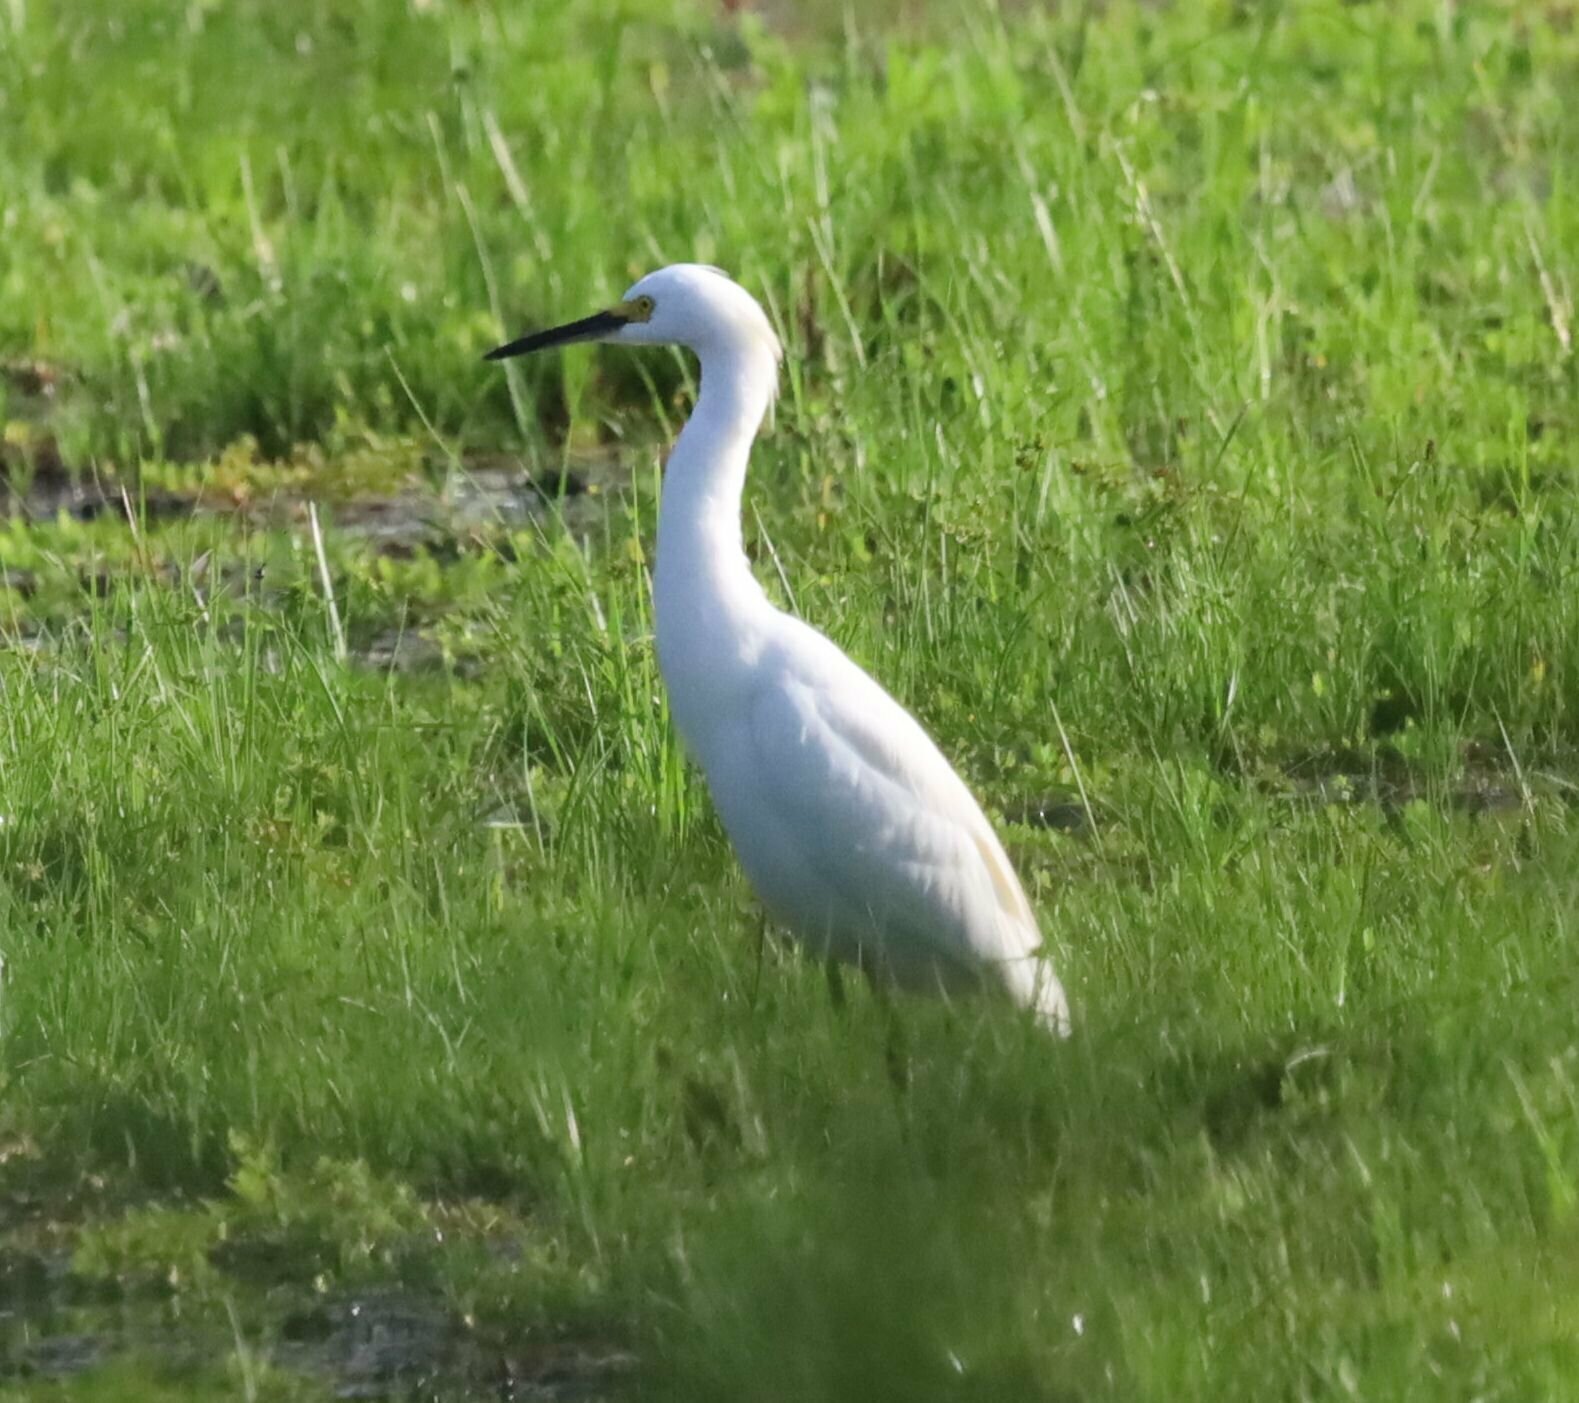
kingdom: Animalia
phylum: Chordata
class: Aves
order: Pelecaniformes
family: Ardeidae
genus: Egretta
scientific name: Egretta thula
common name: Snowy egret
